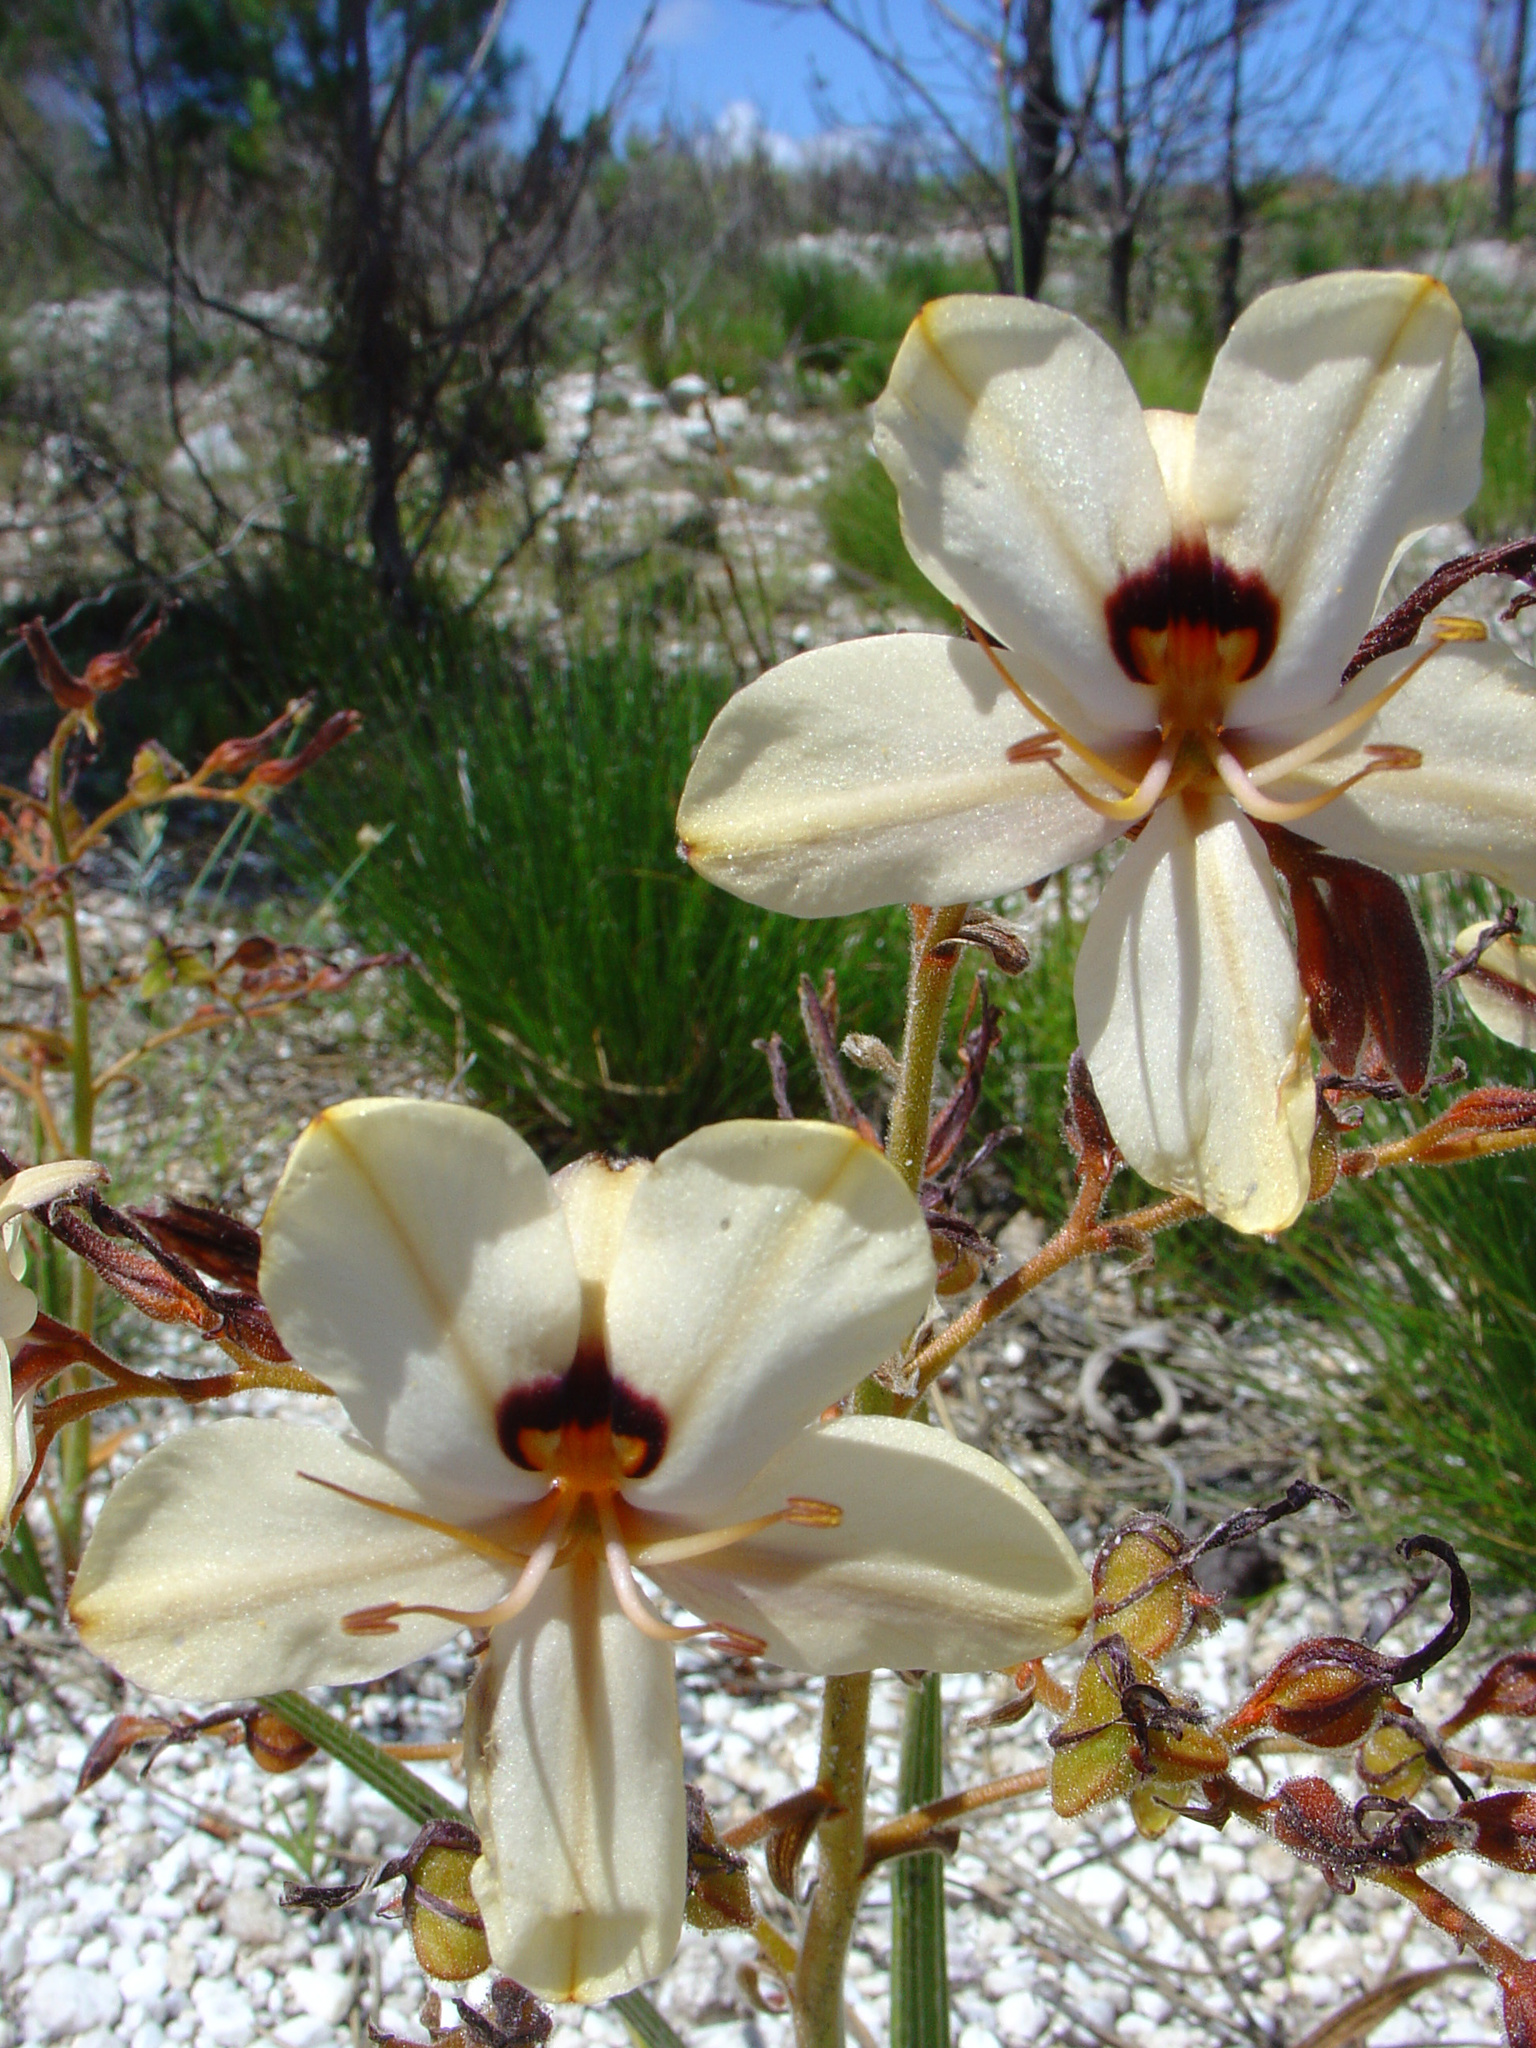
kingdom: Plantae
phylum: Tracheophyta
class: Liliopsida
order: Commelinales
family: Haemodoraceae
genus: Wachendorfia
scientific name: Wachendorfia paniculata
